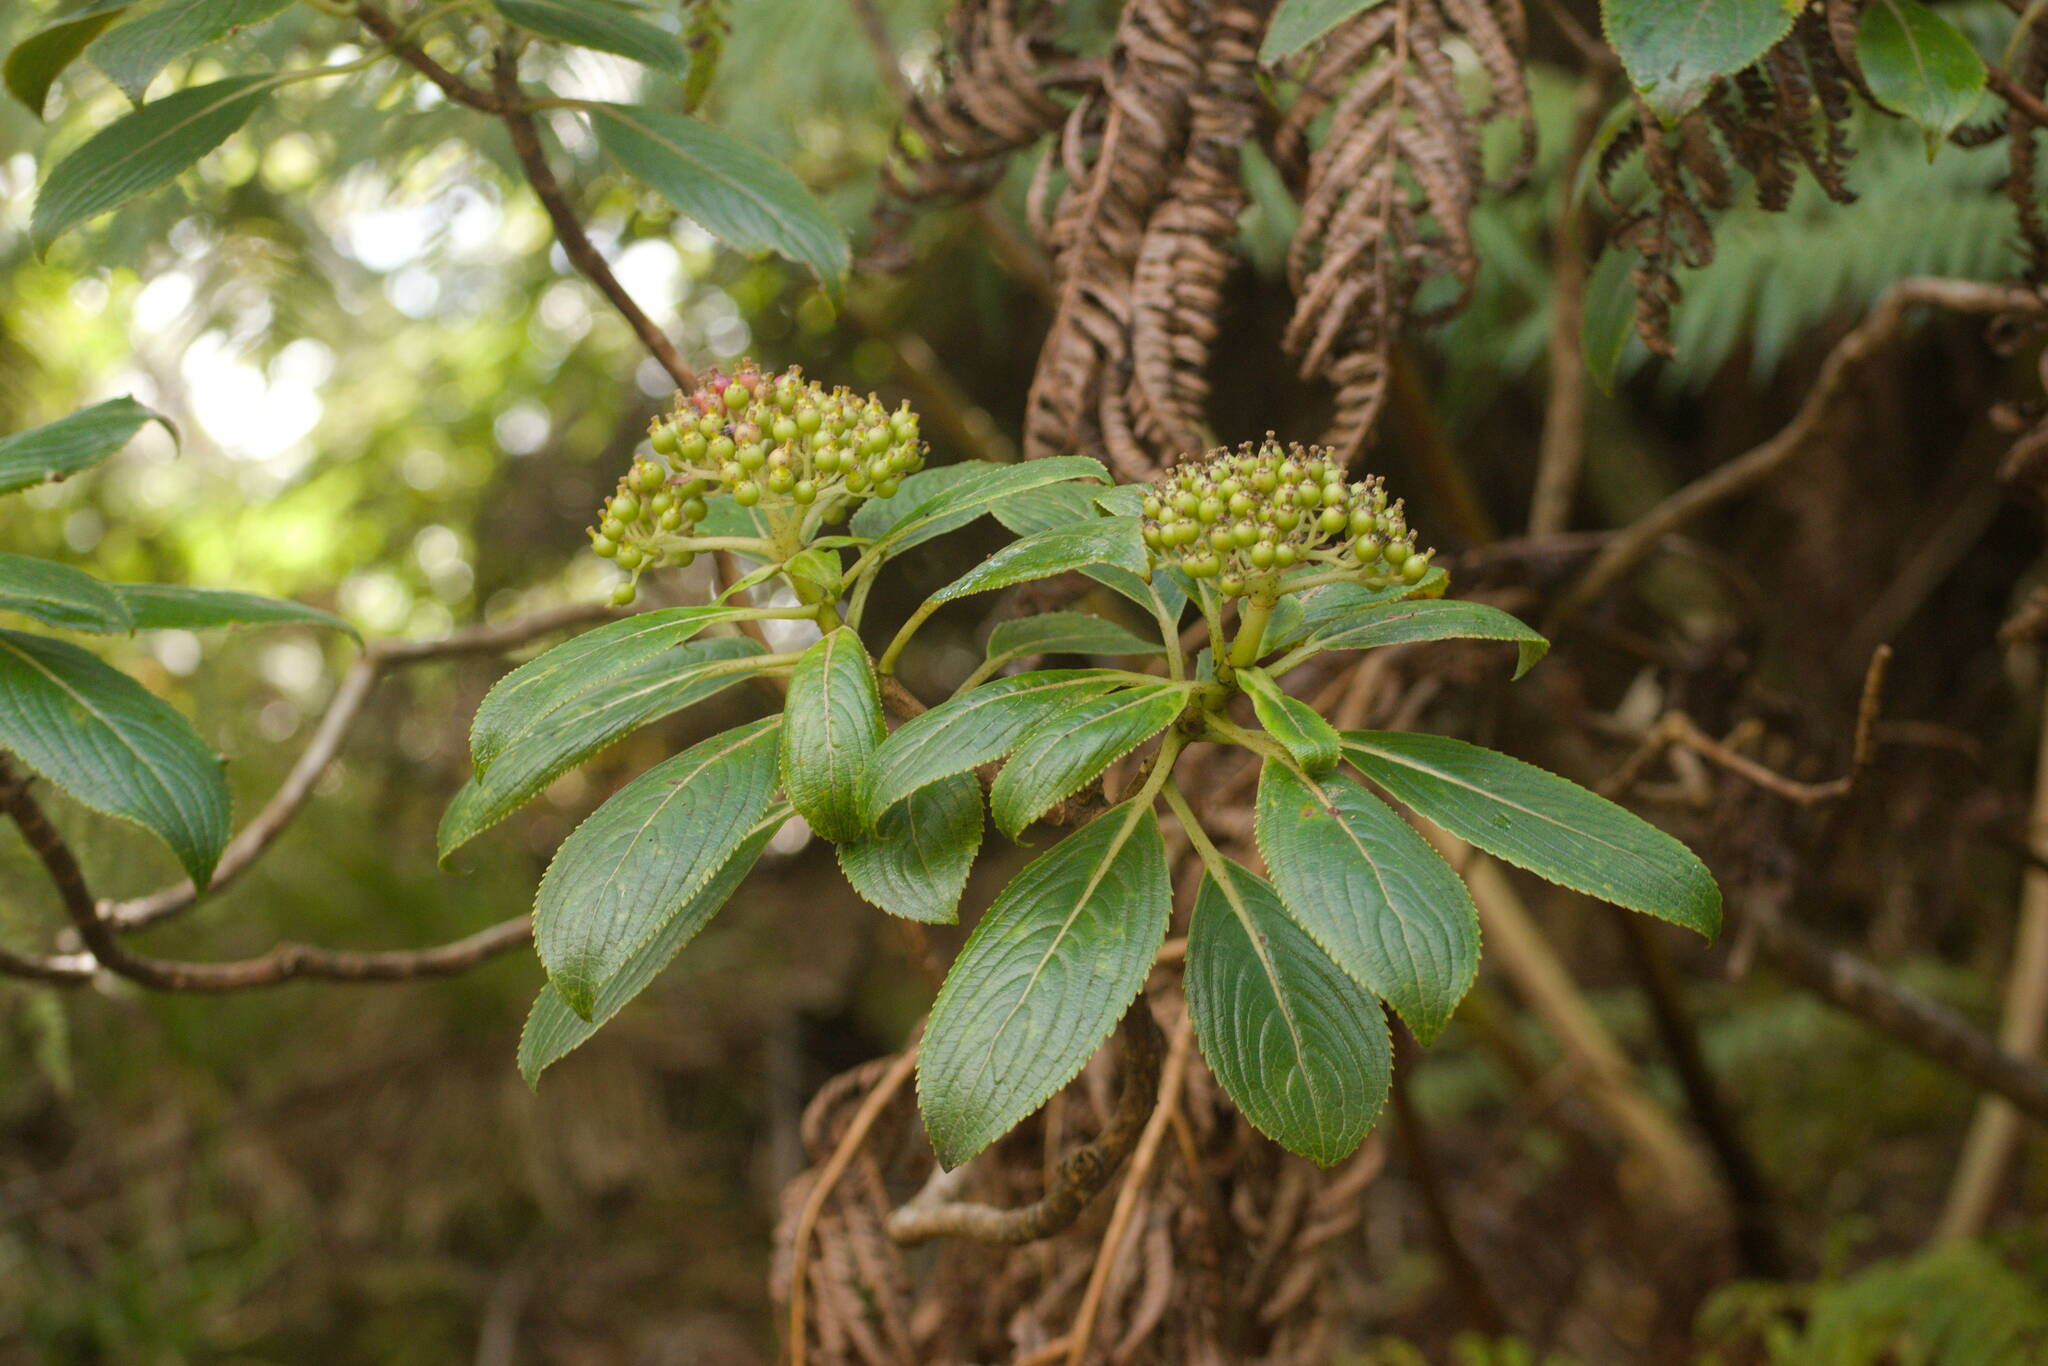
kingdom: Plantae
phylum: Tracheophyta
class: Magnoliopsida
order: Cornales
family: Hydrangeaceae
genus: Hydrangea
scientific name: Hydrangea arguta
